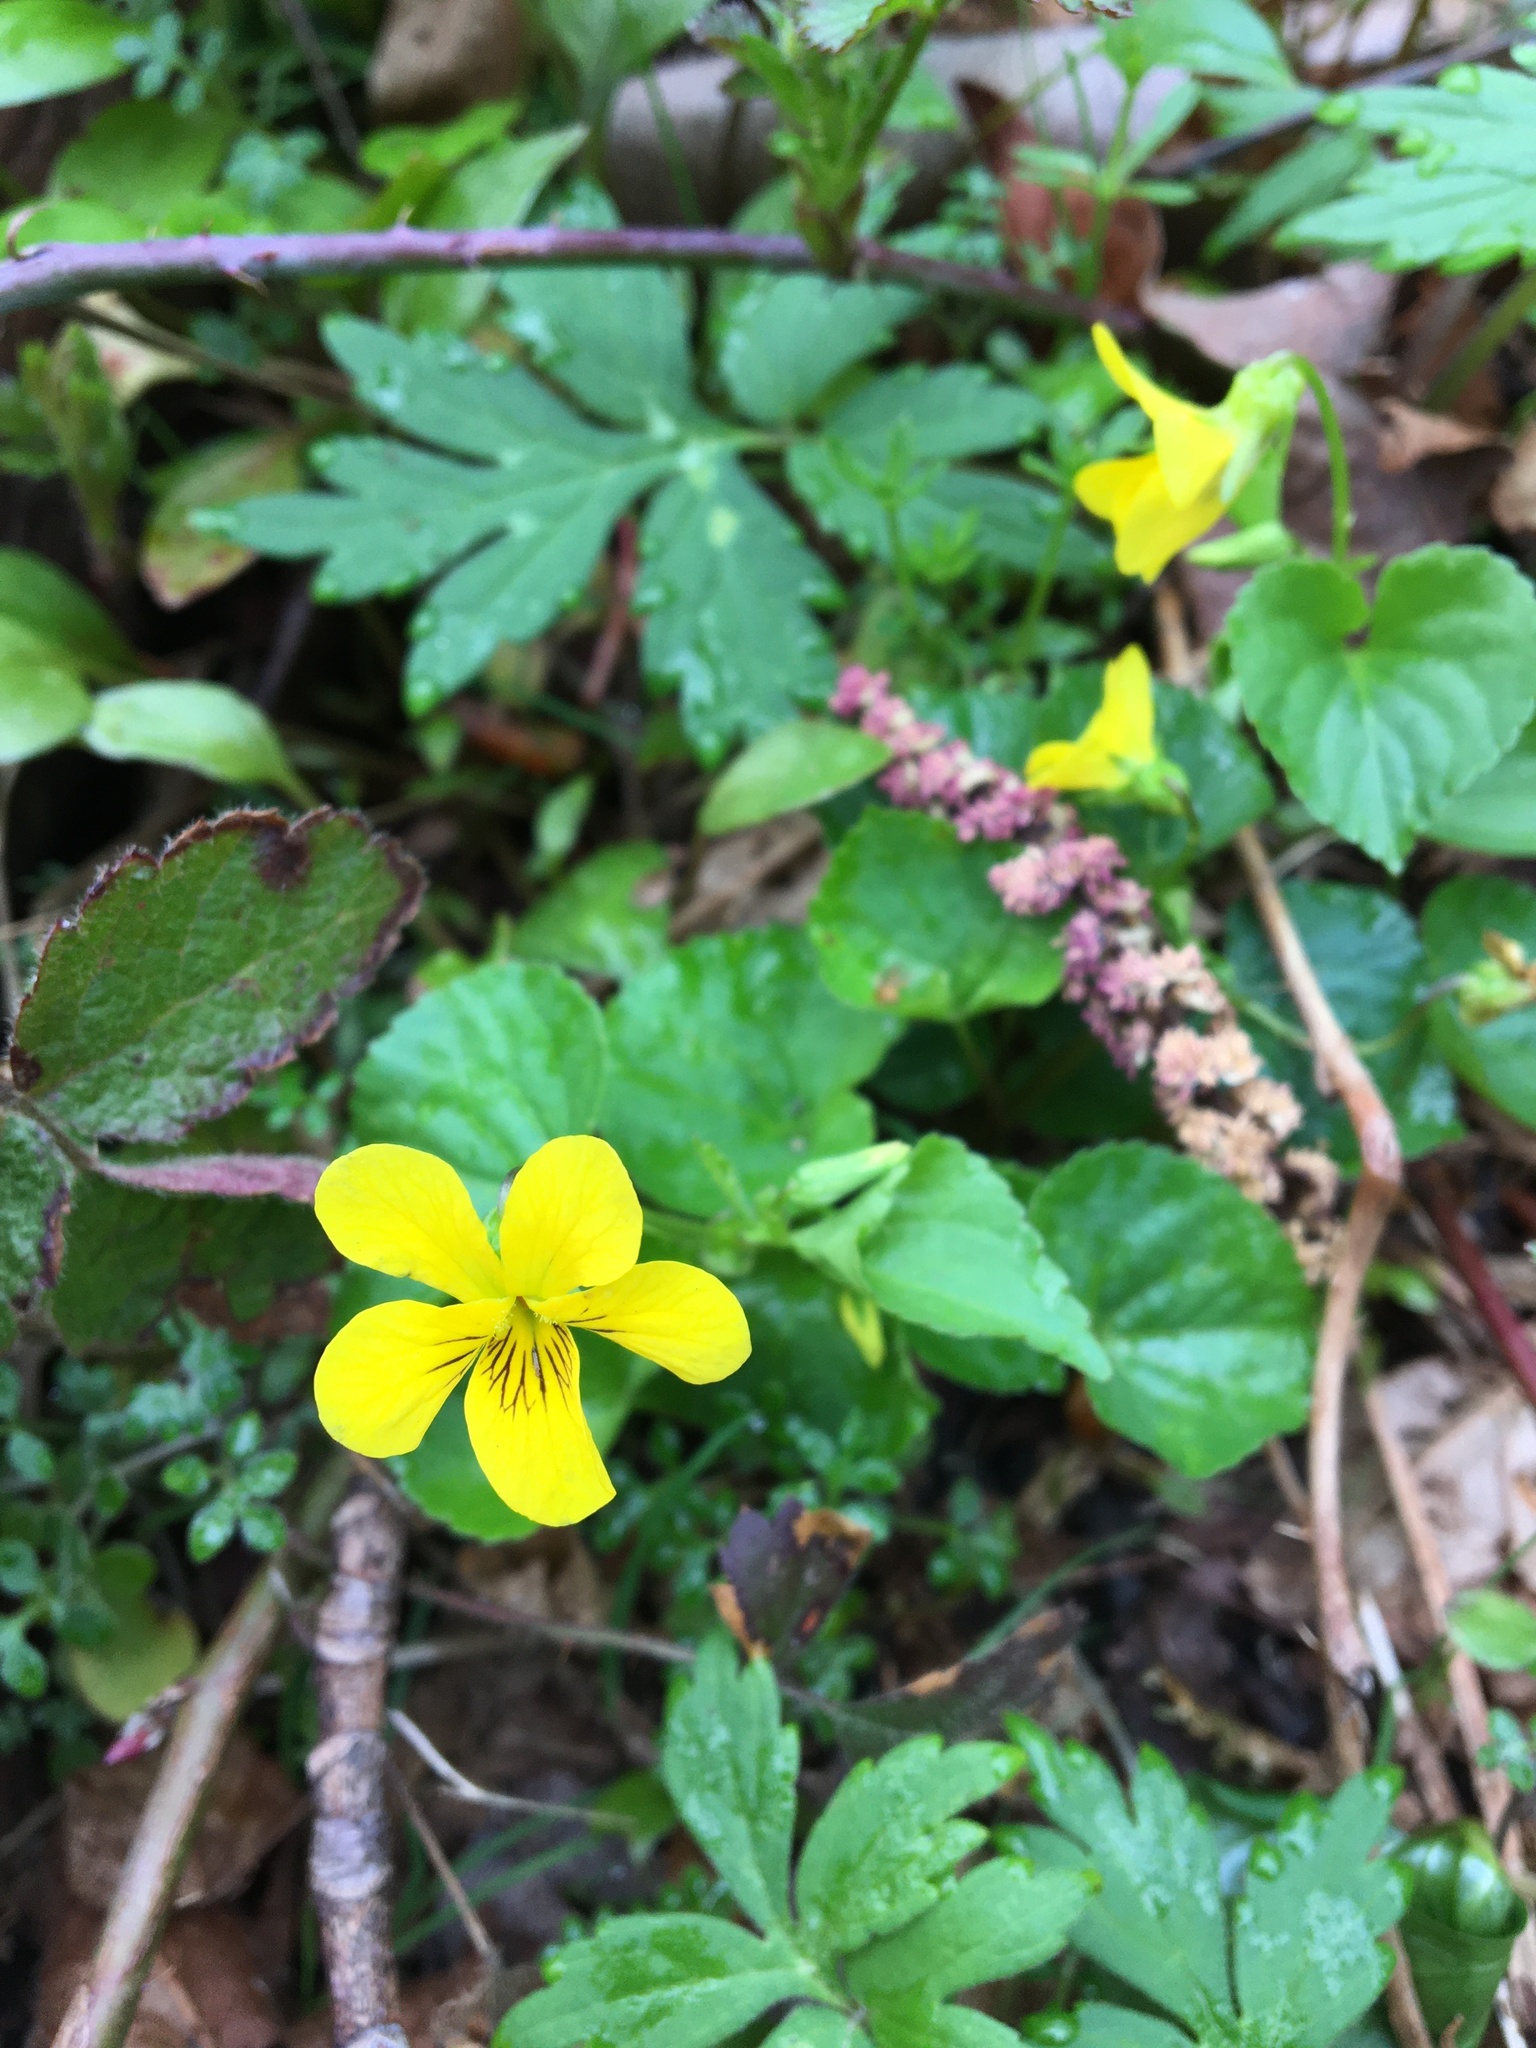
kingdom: Plantae
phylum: Tracheophyta
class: Magnoliopsida
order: Malpighiales
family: Violaceae
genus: Viola
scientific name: Viola glabella
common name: Stream violet
